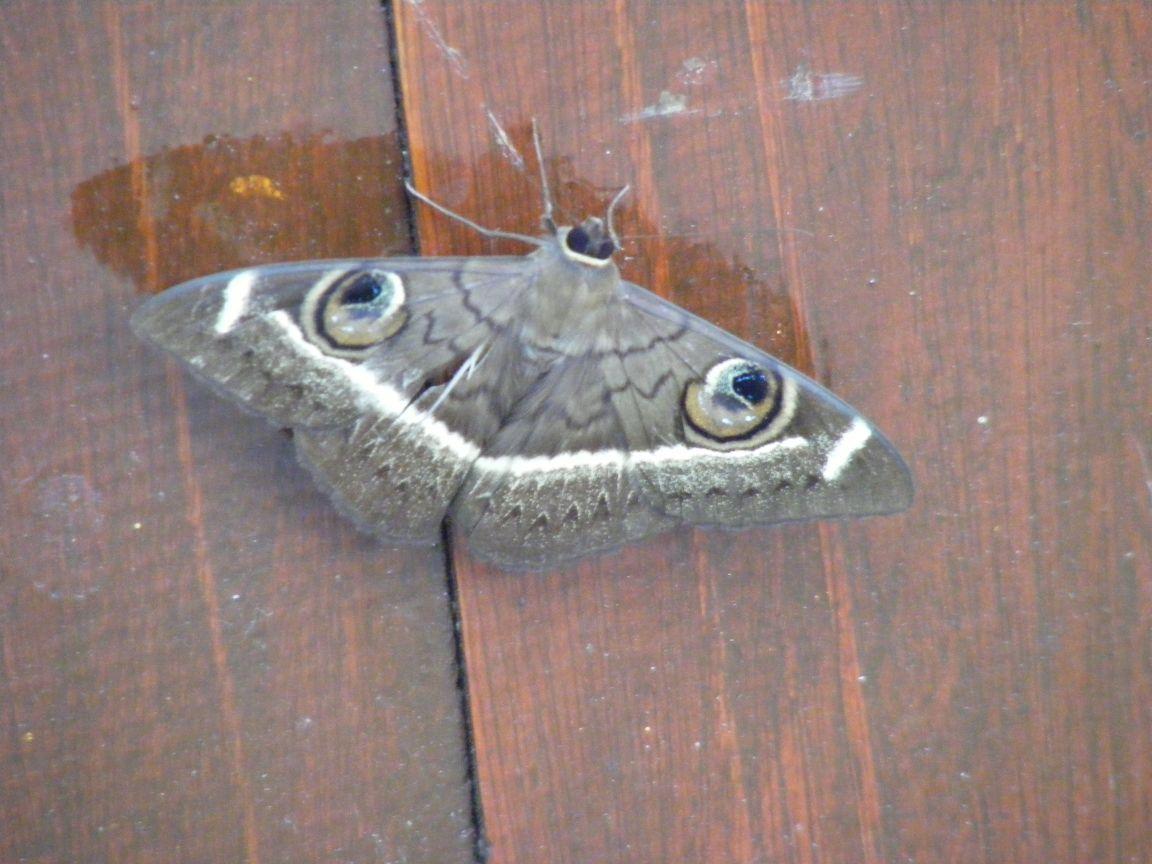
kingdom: Animalia
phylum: Arthropoda
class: Insecta
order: Lepidoptera
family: Erebidae
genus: Cyligramma
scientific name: Cyligramma latona
